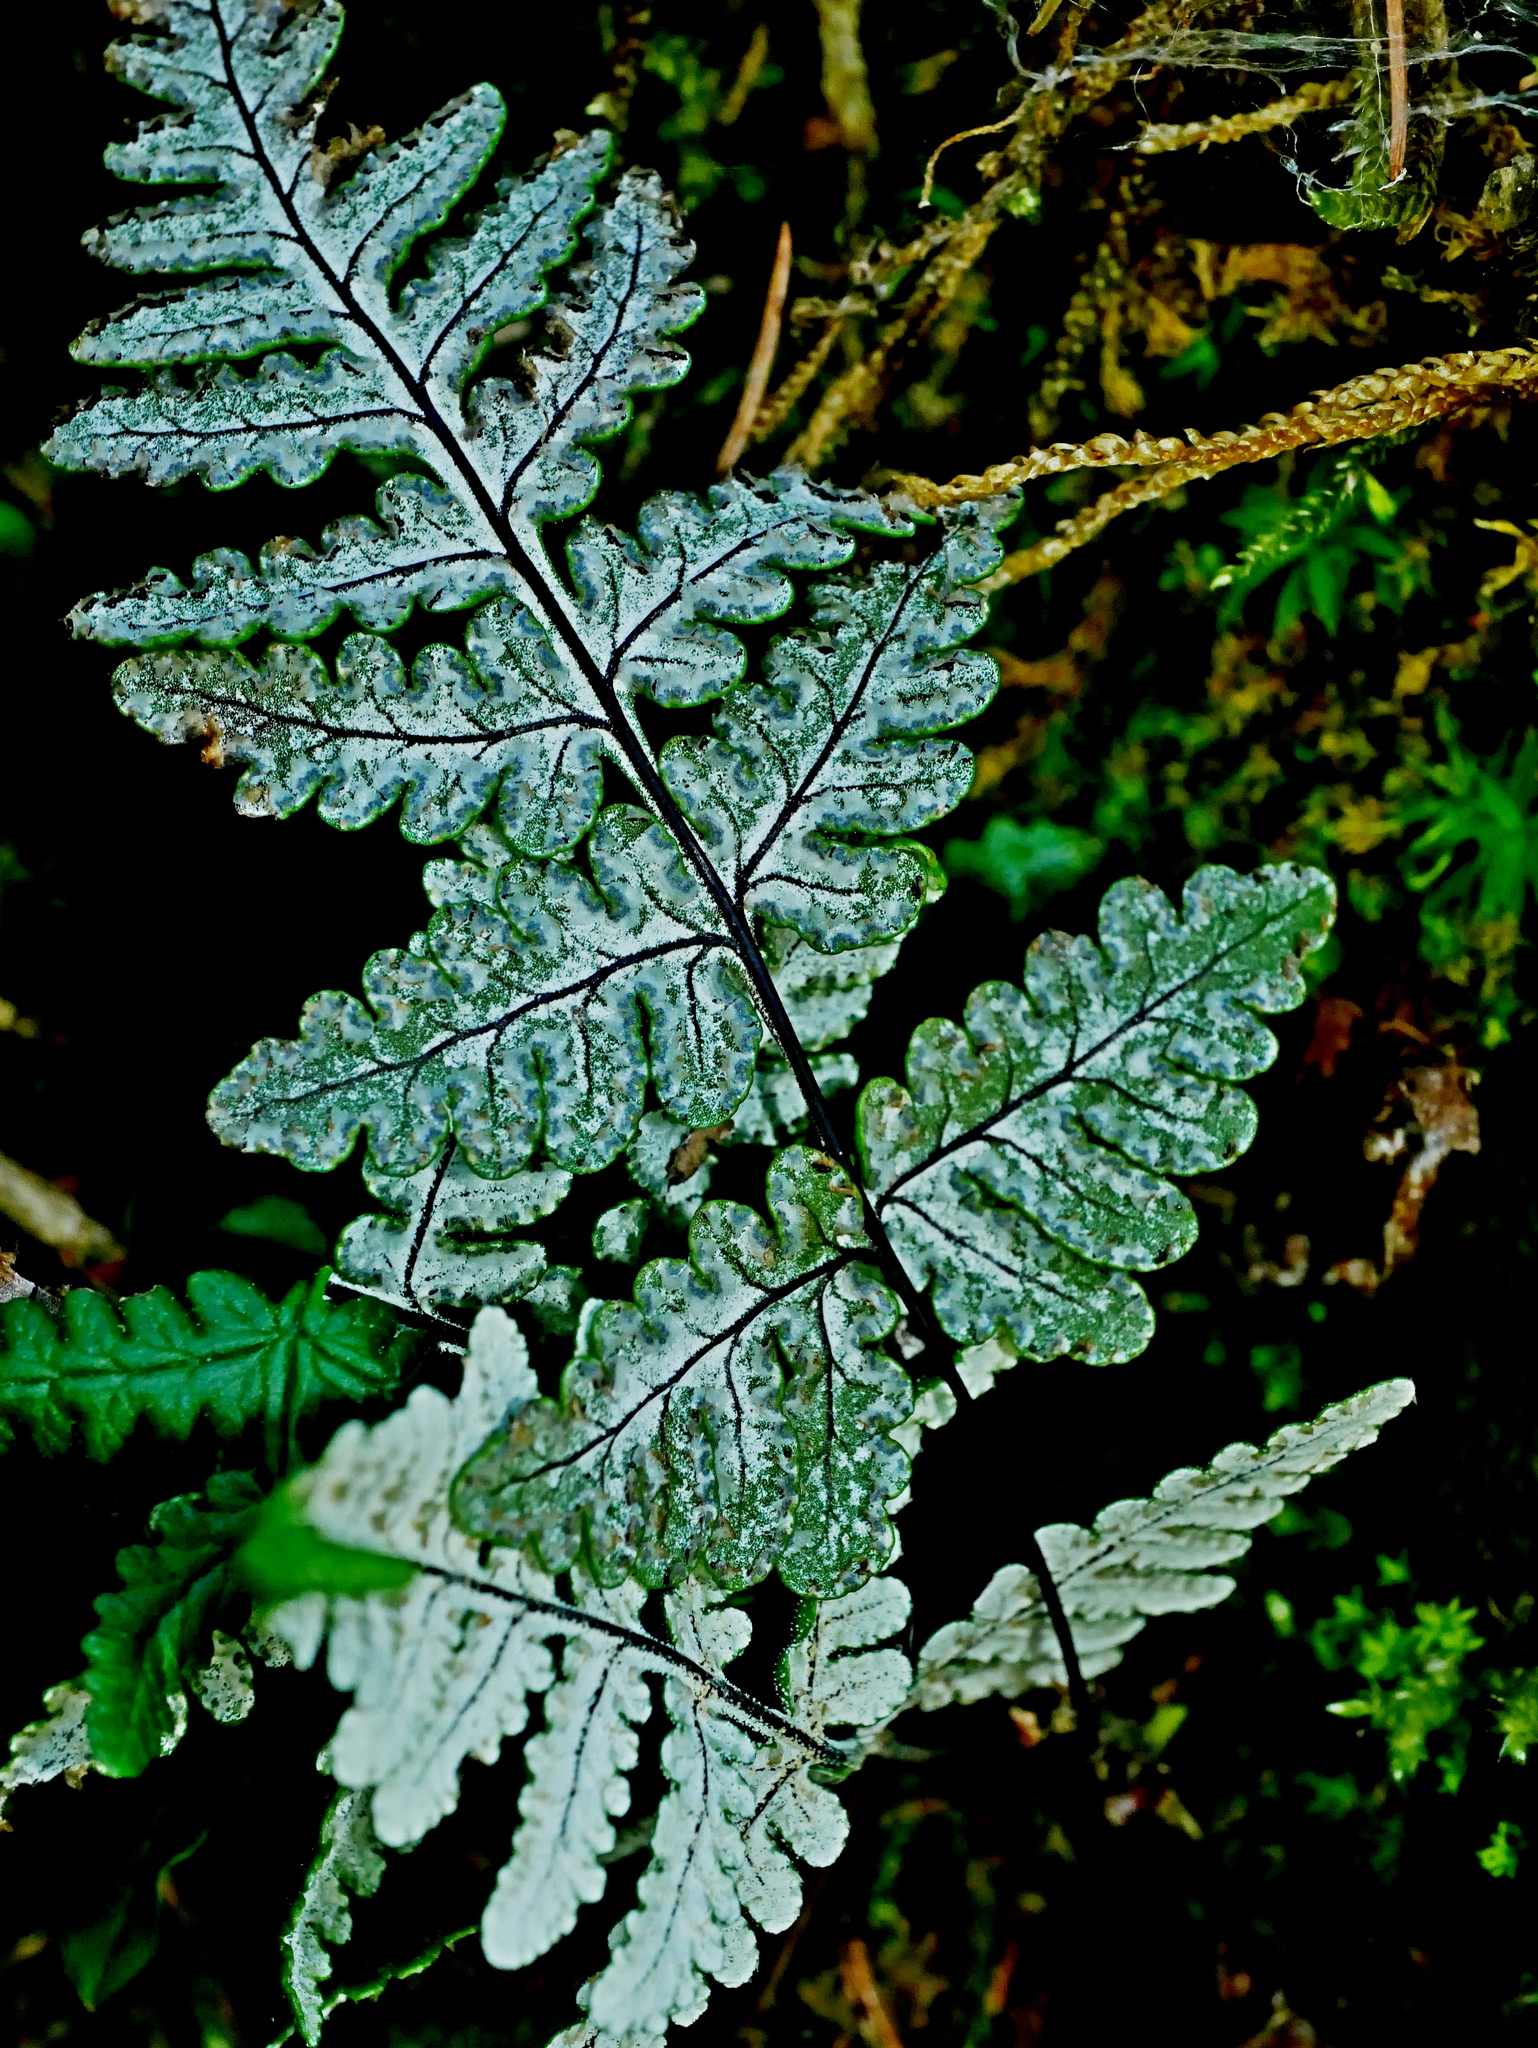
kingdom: Plantae
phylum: Tracheophyta
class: Polypodiopsida
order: Polypodiales
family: Pteridaceae
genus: Aleuritopteris
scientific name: Aleuritopteris formosana
